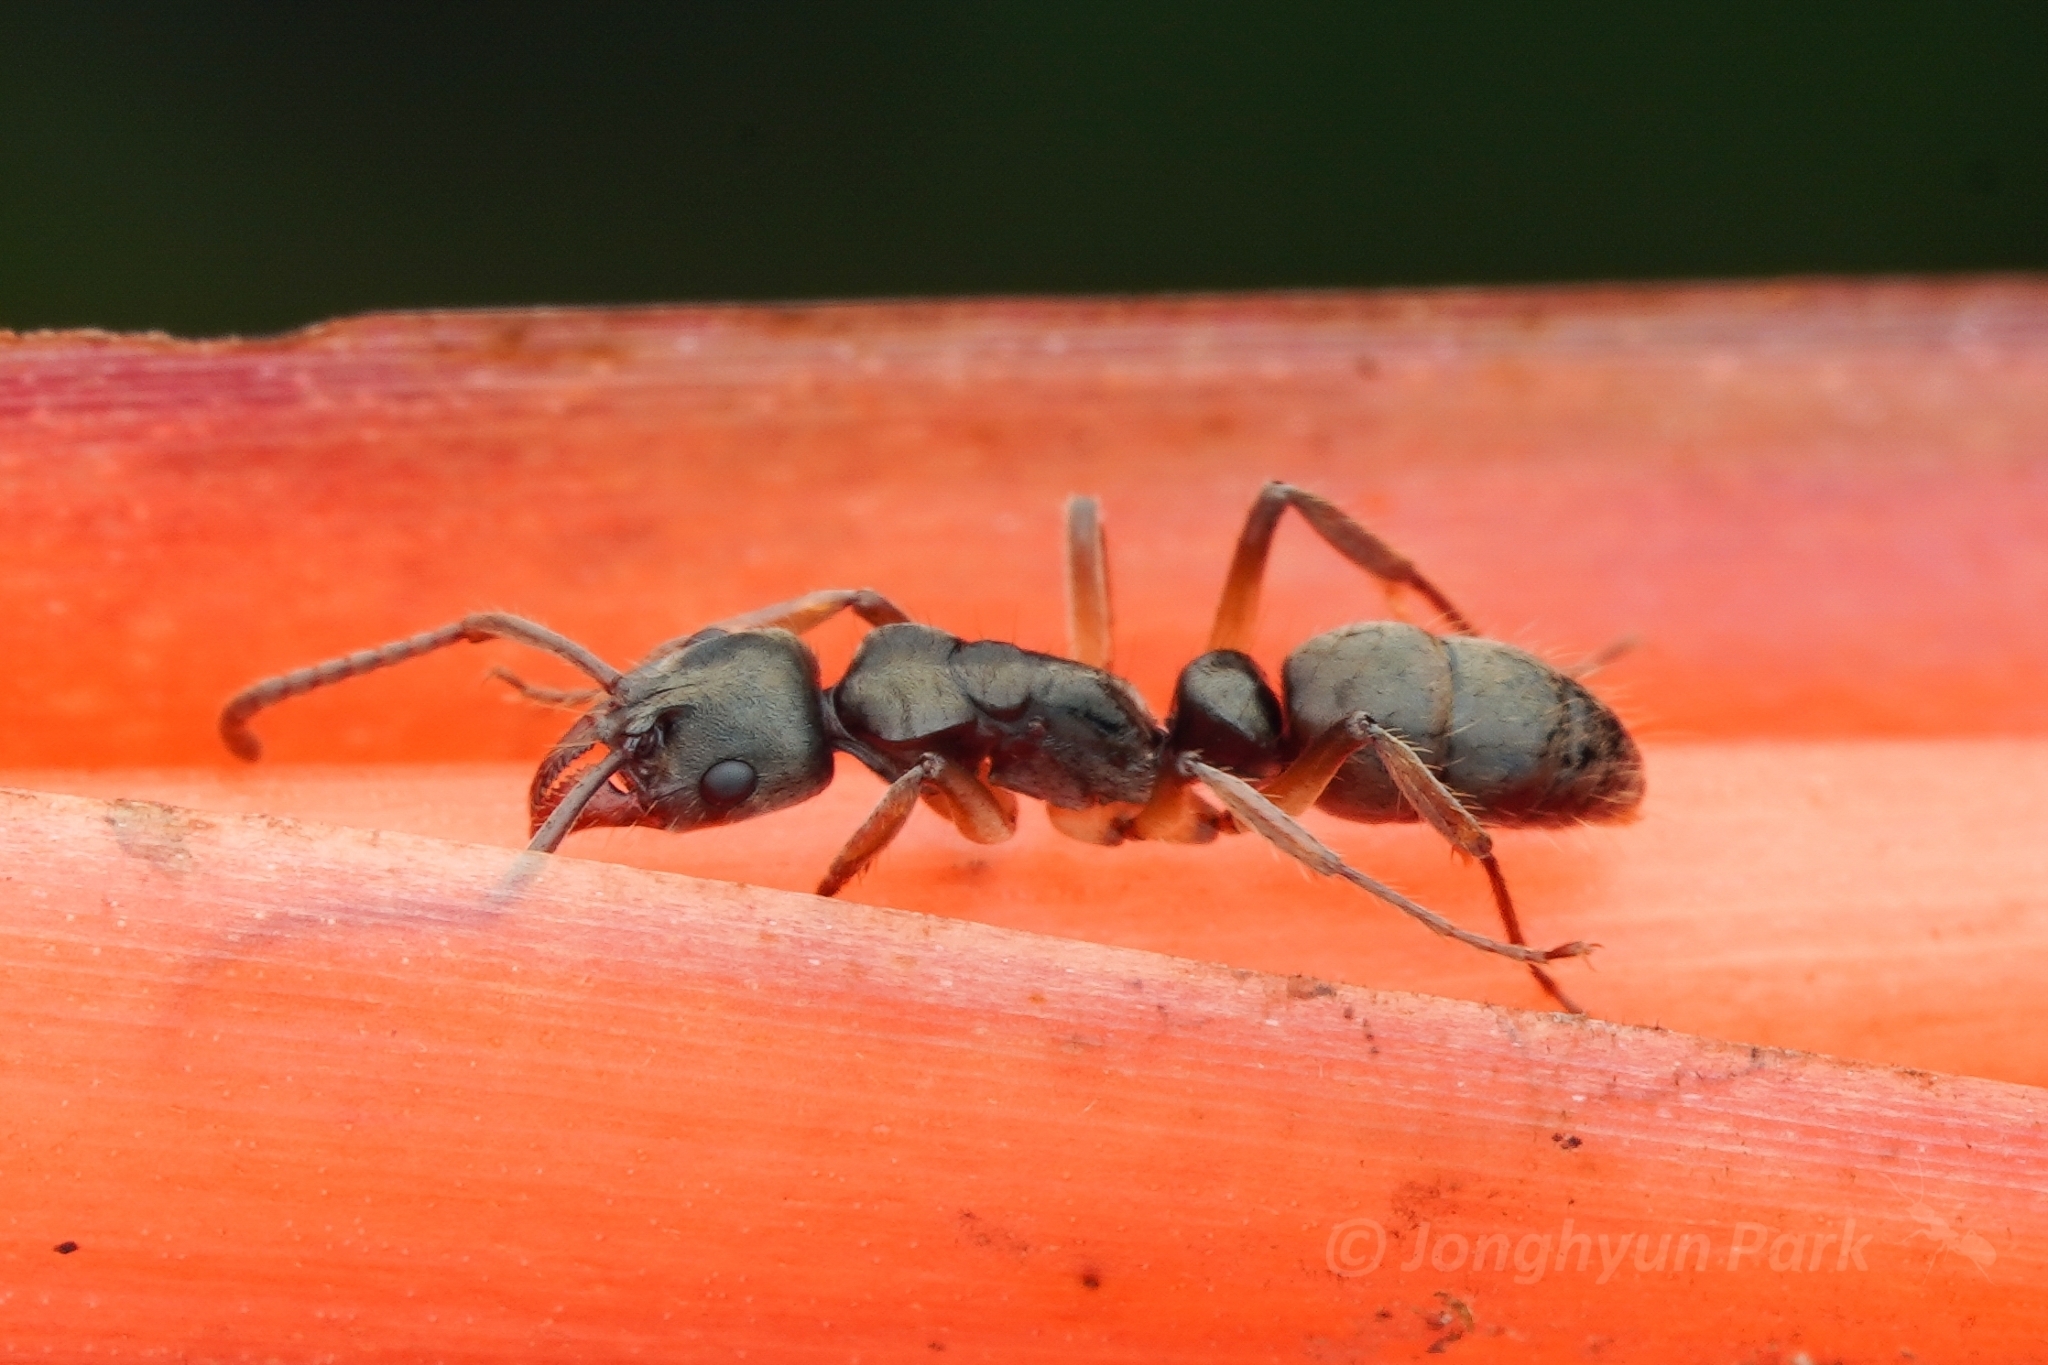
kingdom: Animalia
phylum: Arthropoda
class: Insecta
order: Hymenoptera
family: Formicidae
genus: Pachycondyla
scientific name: Pachycondyla unidentata
